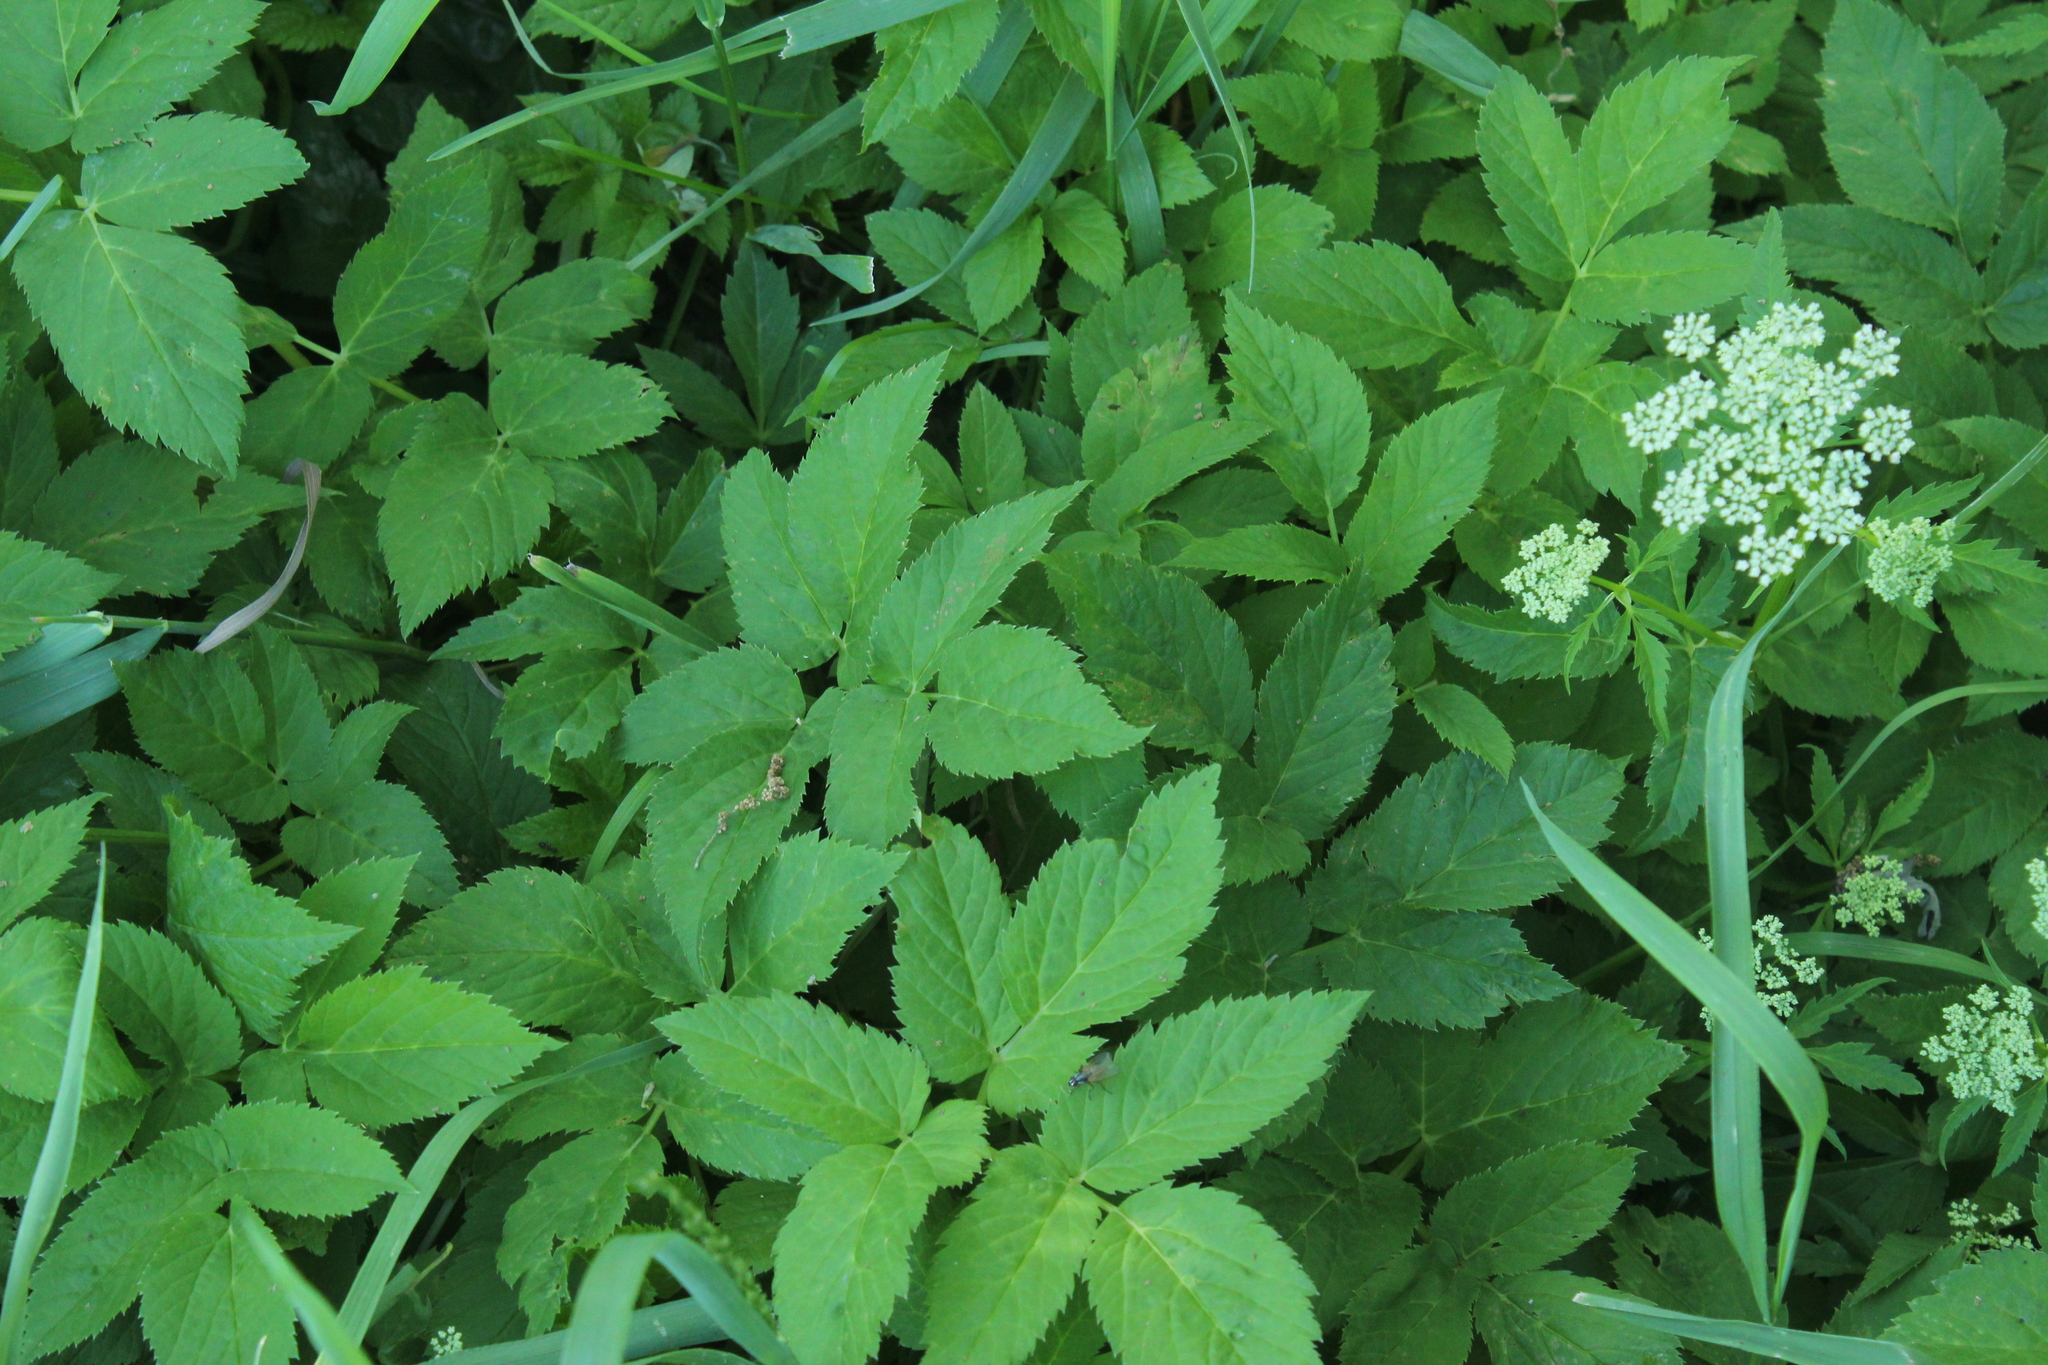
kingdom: Plantae
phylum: Tracheophyta
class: Magnoliopsida
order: Apiales
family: Apiaceae
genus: Aegopodium
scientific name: Aegopodium podagraria
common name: Ground-elder
